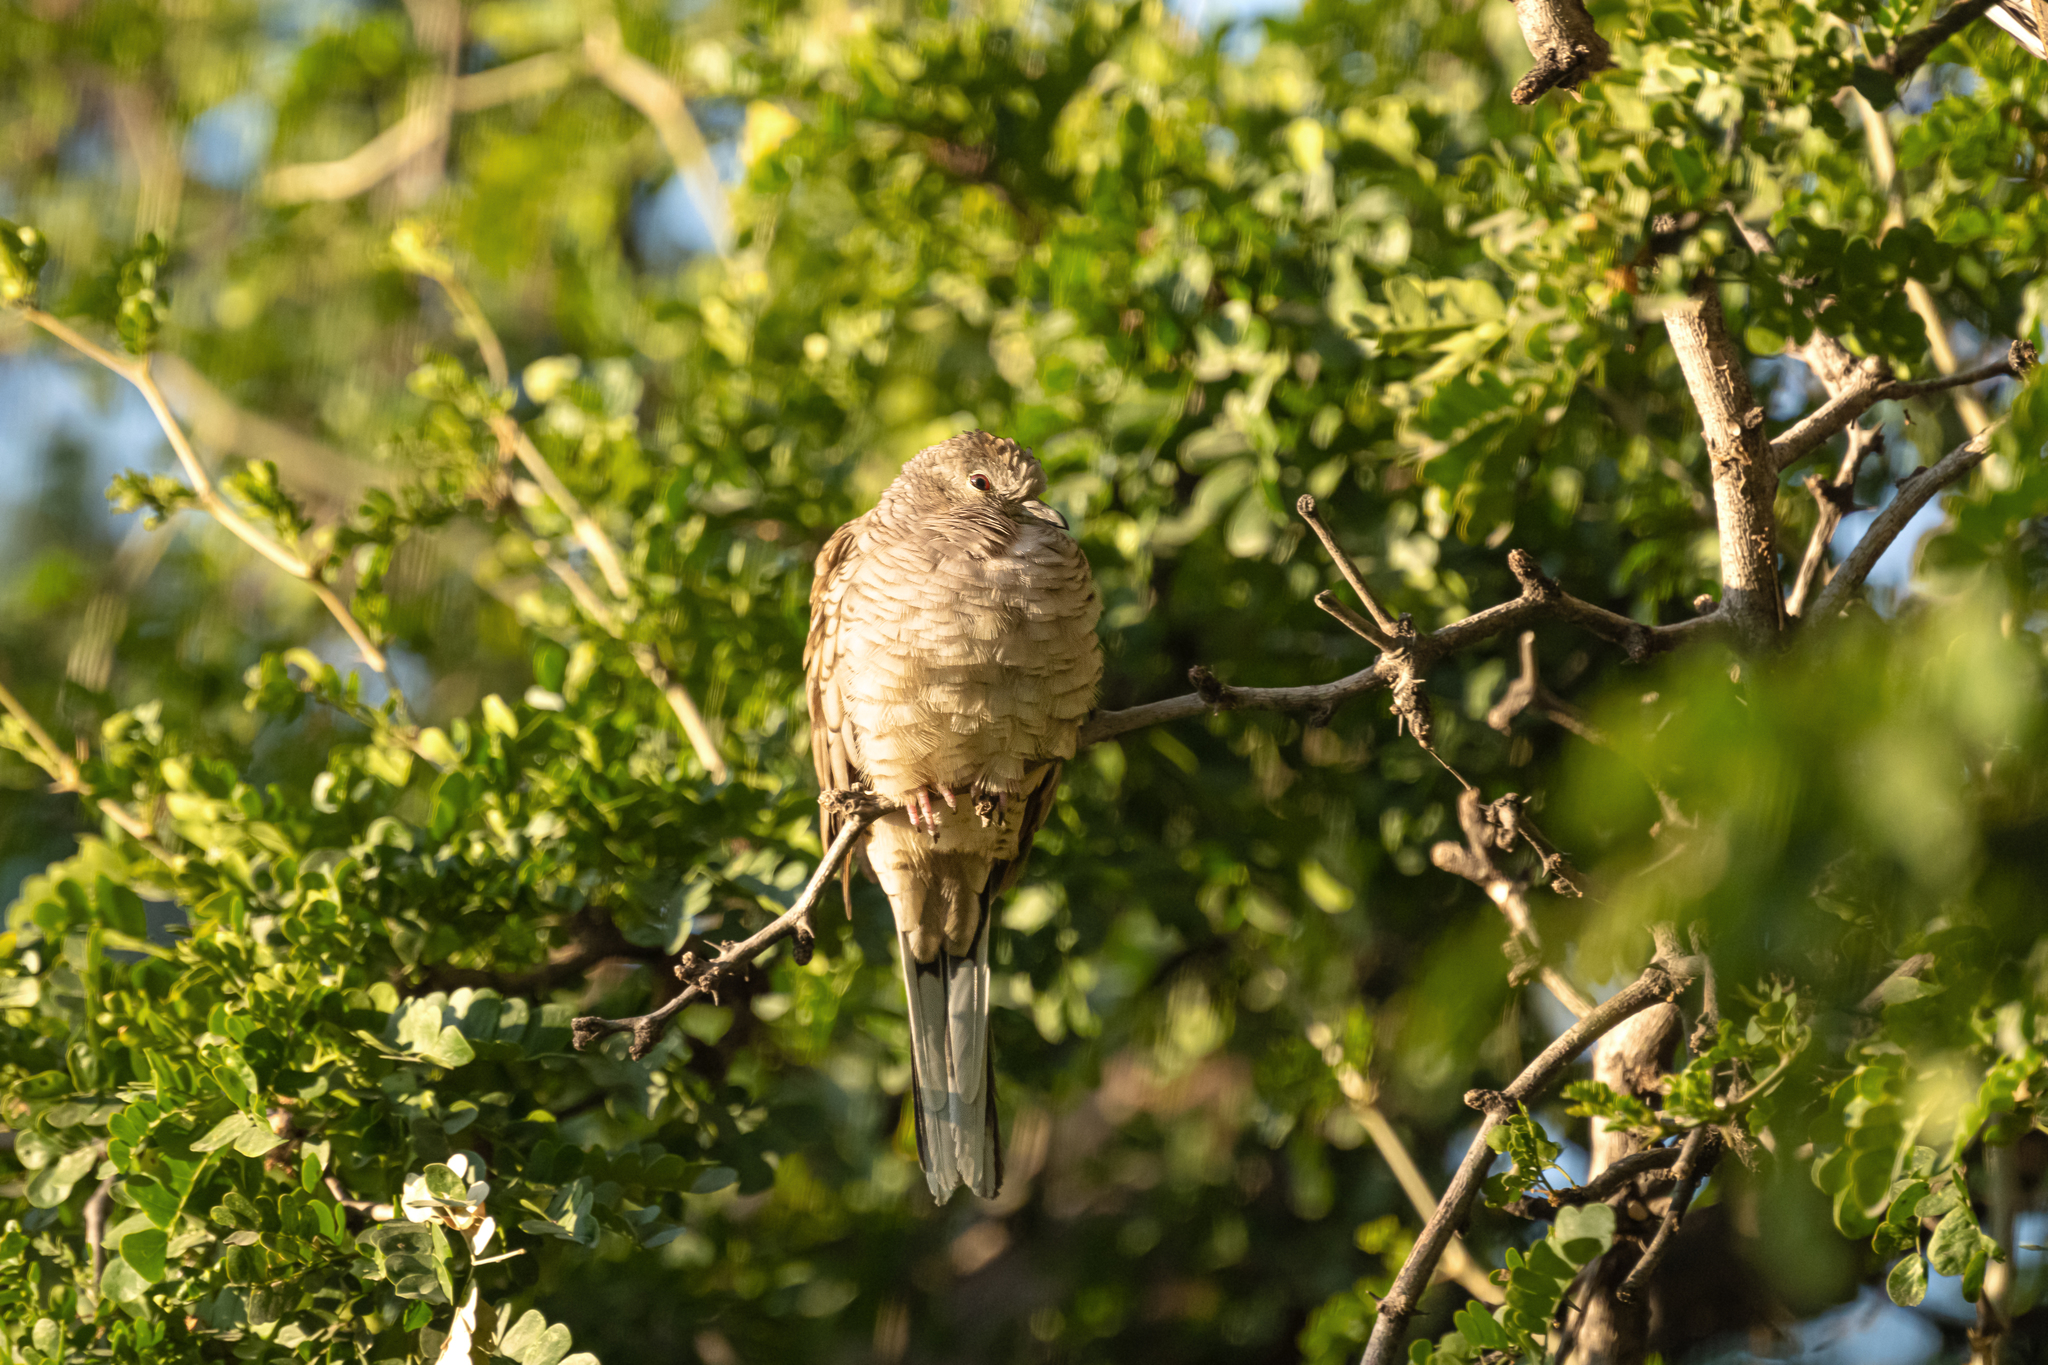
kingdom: Animalia
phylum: Chordata
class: Aves
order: Columbiformes
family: Columbidae
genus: Columbina
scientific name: Columbina inca
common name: Inca dove
